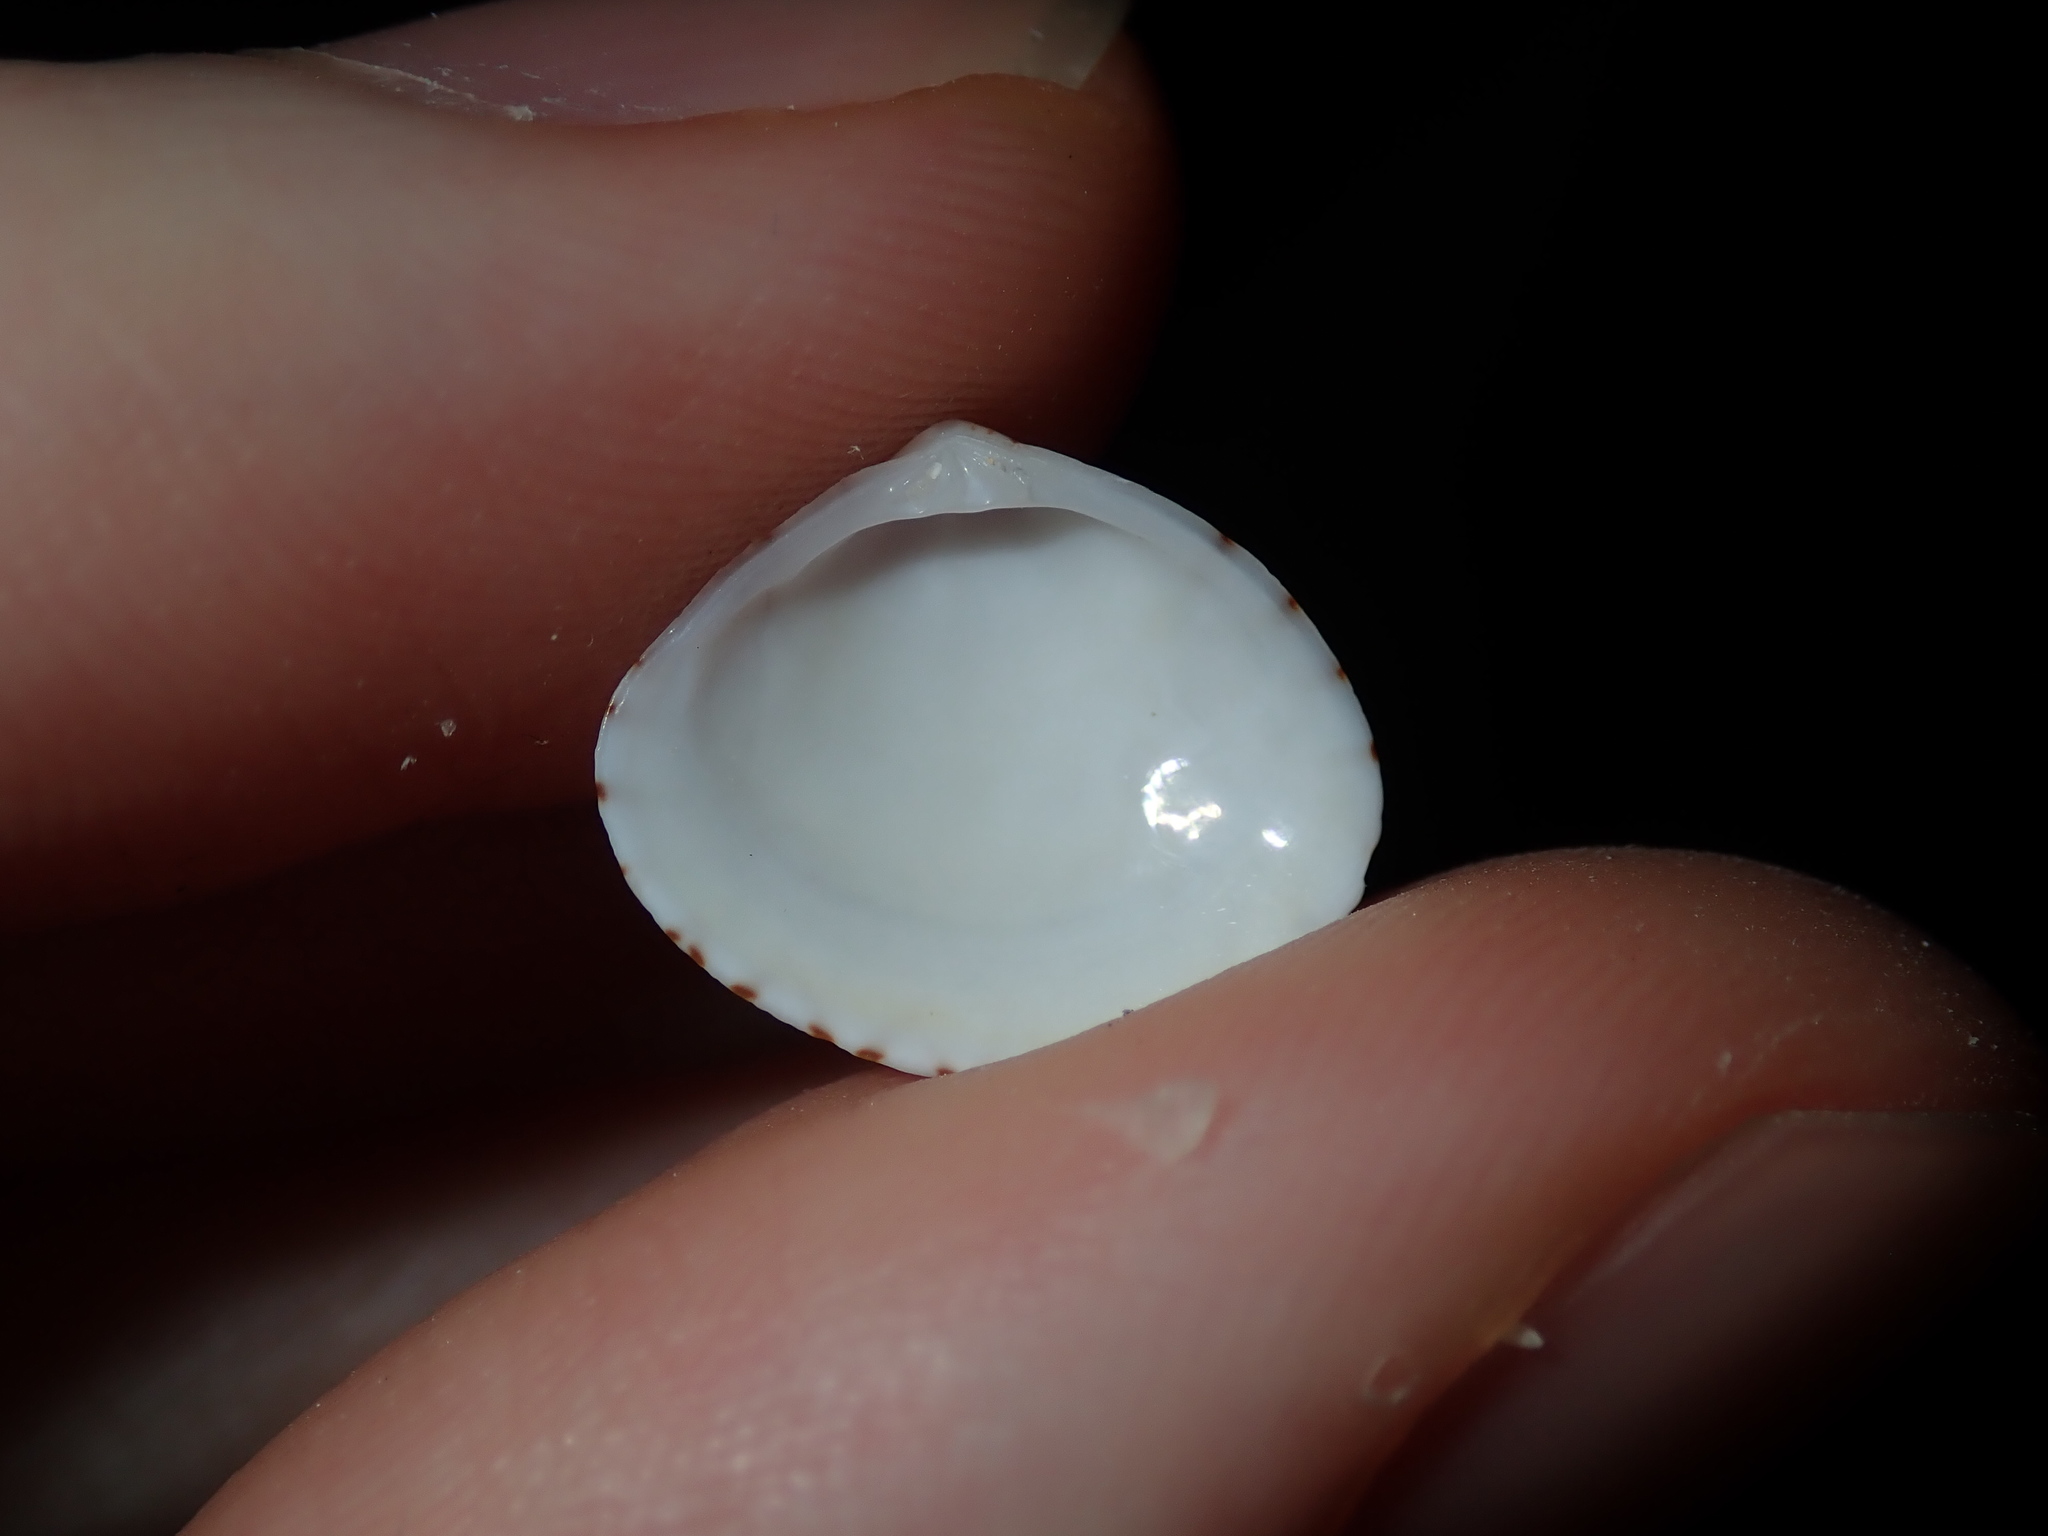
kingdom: Animalia
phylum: Mollusca
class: Bivalvia
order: Venerida
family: Veneridae
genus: Gomphina
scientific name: Gomphina undulosa
